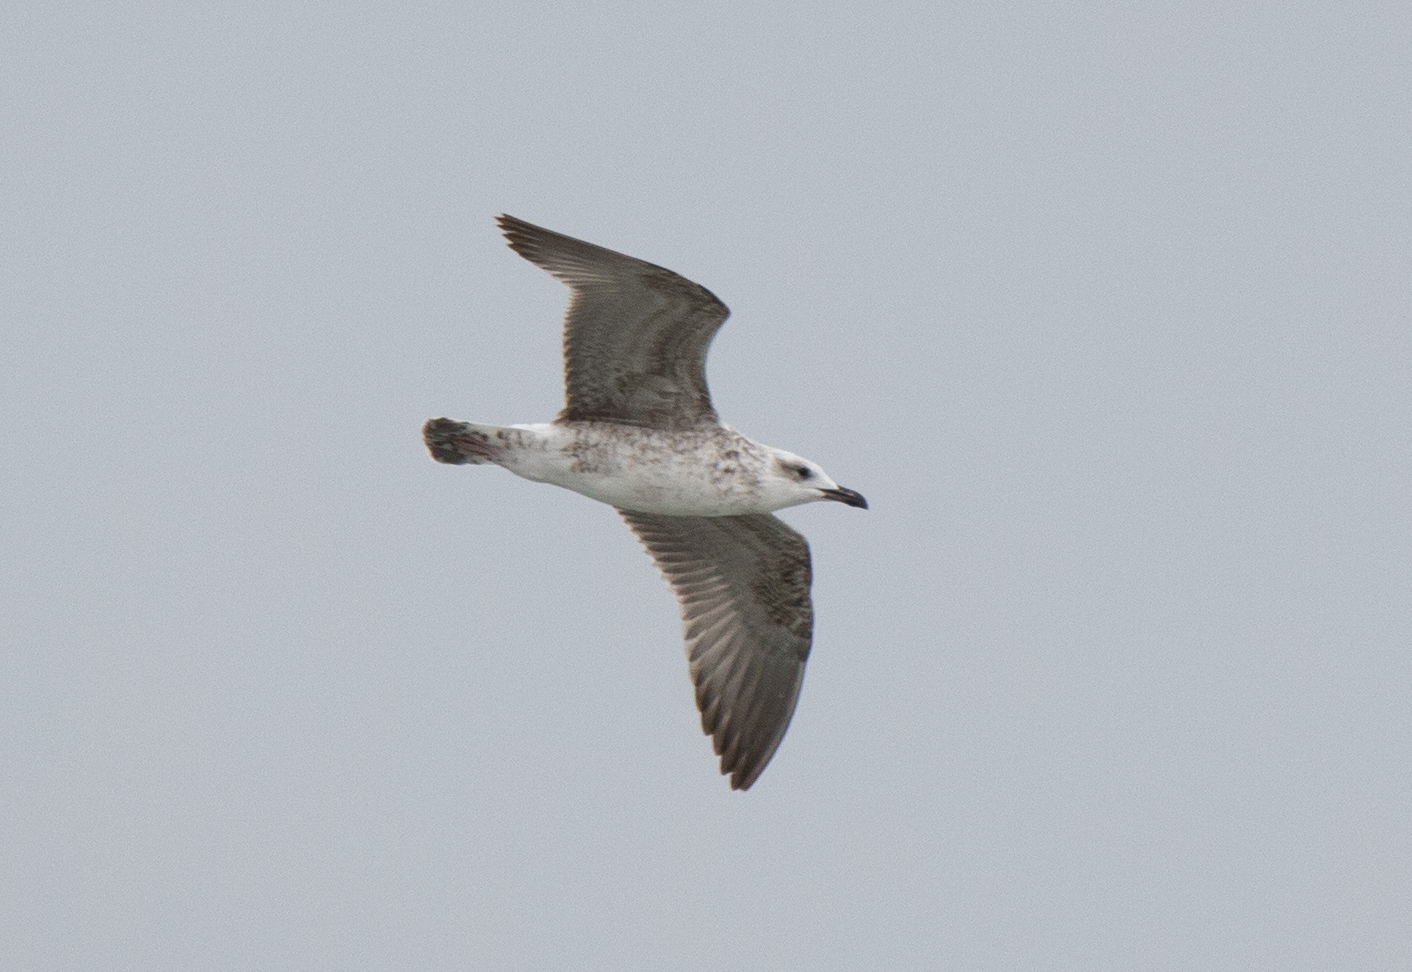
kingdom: Animalia
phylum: Chordata
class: Aves
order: Charadriiformes
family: Laridae
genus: Larus
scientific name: Larus michahellis
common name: Yellow-legged gull
